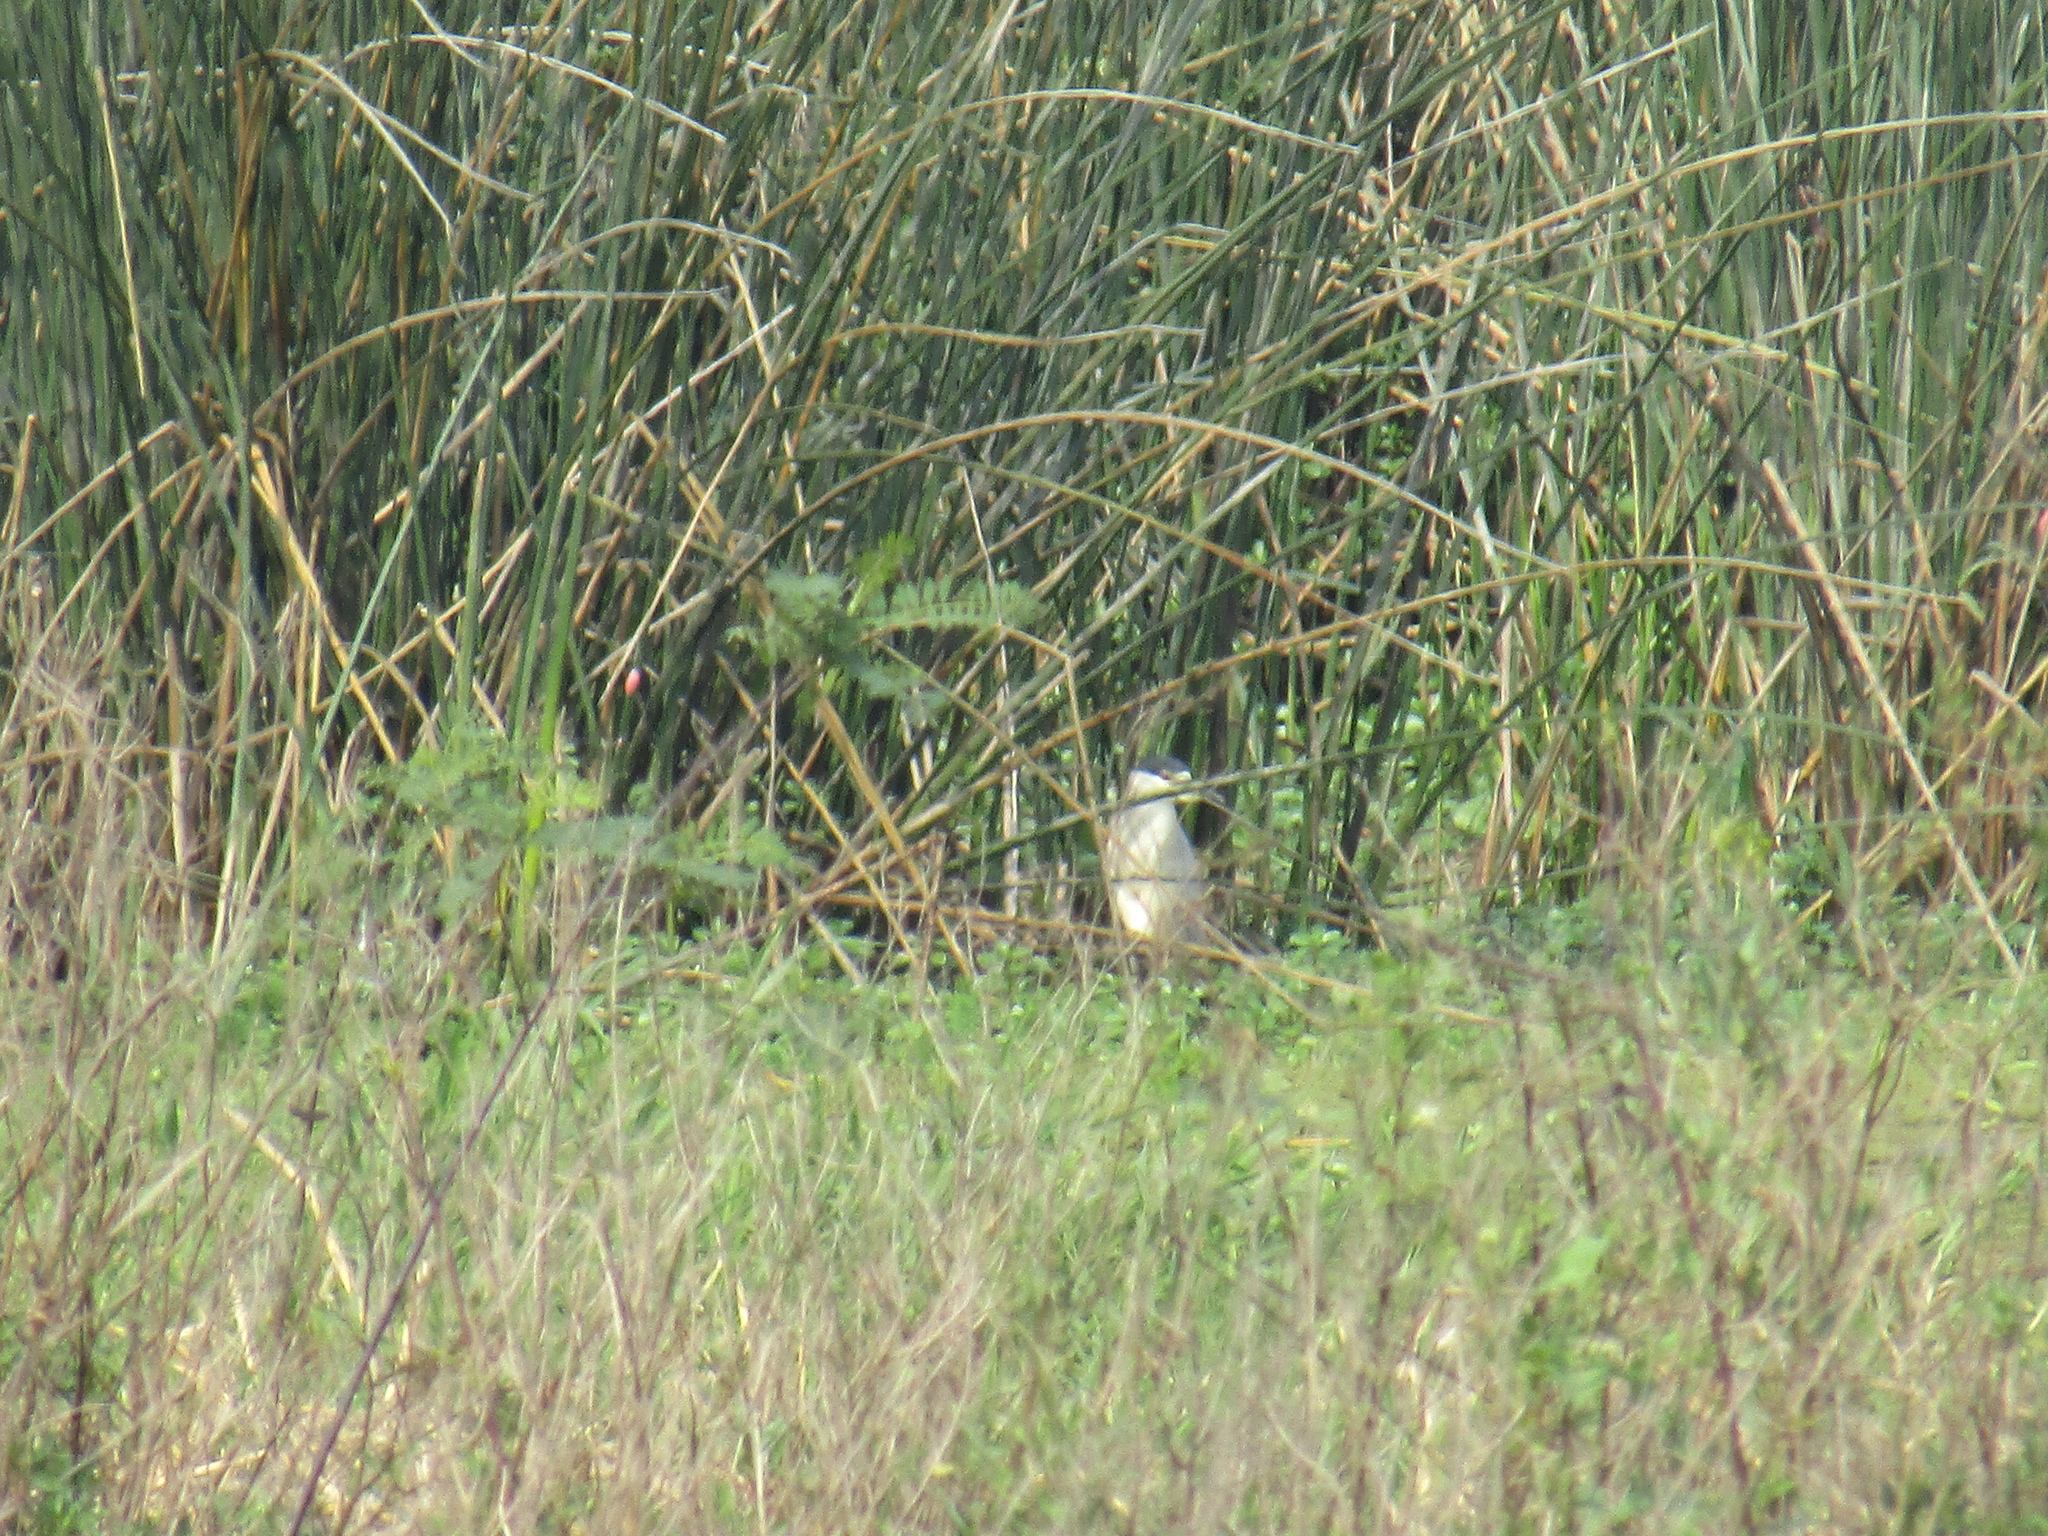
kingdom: Animalia
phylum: Chordata
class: Aves
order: Pelecaniformes
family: Ardeidae
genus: Nycticorax
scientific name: Nycticorax nycticorax
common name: Black-crowned night heron
